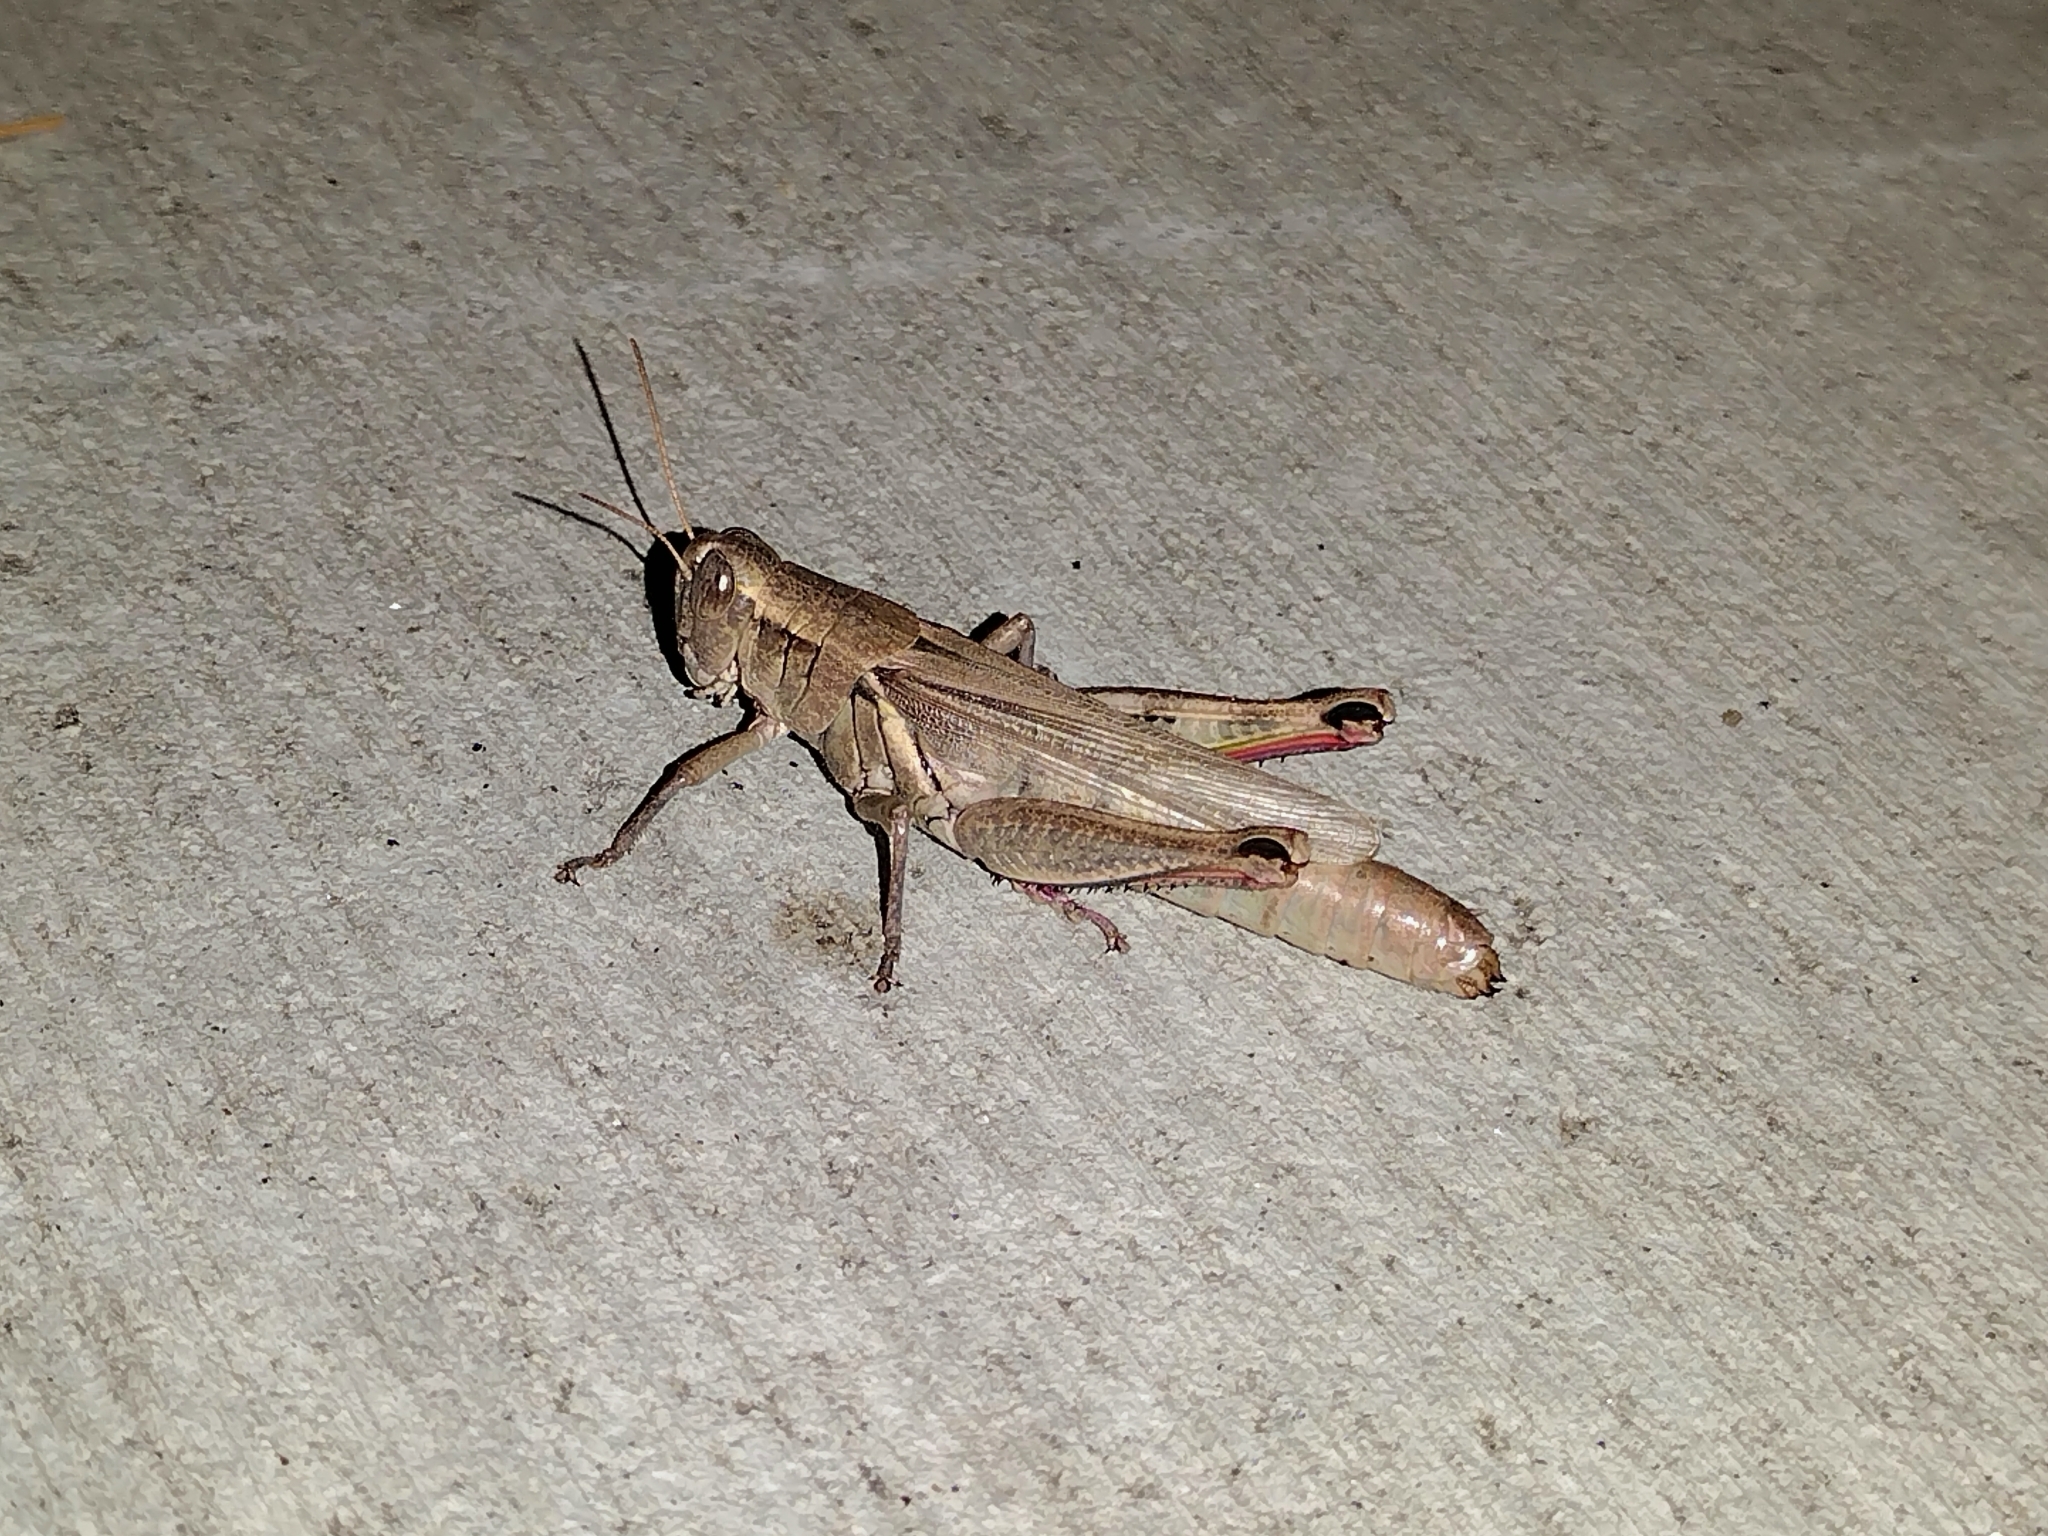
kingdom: Animalia
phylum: Arthropoda
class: Insecta
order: Orthoptera
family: Acrididae
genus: Melanoplus
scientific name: Melanoplus yarrowii
